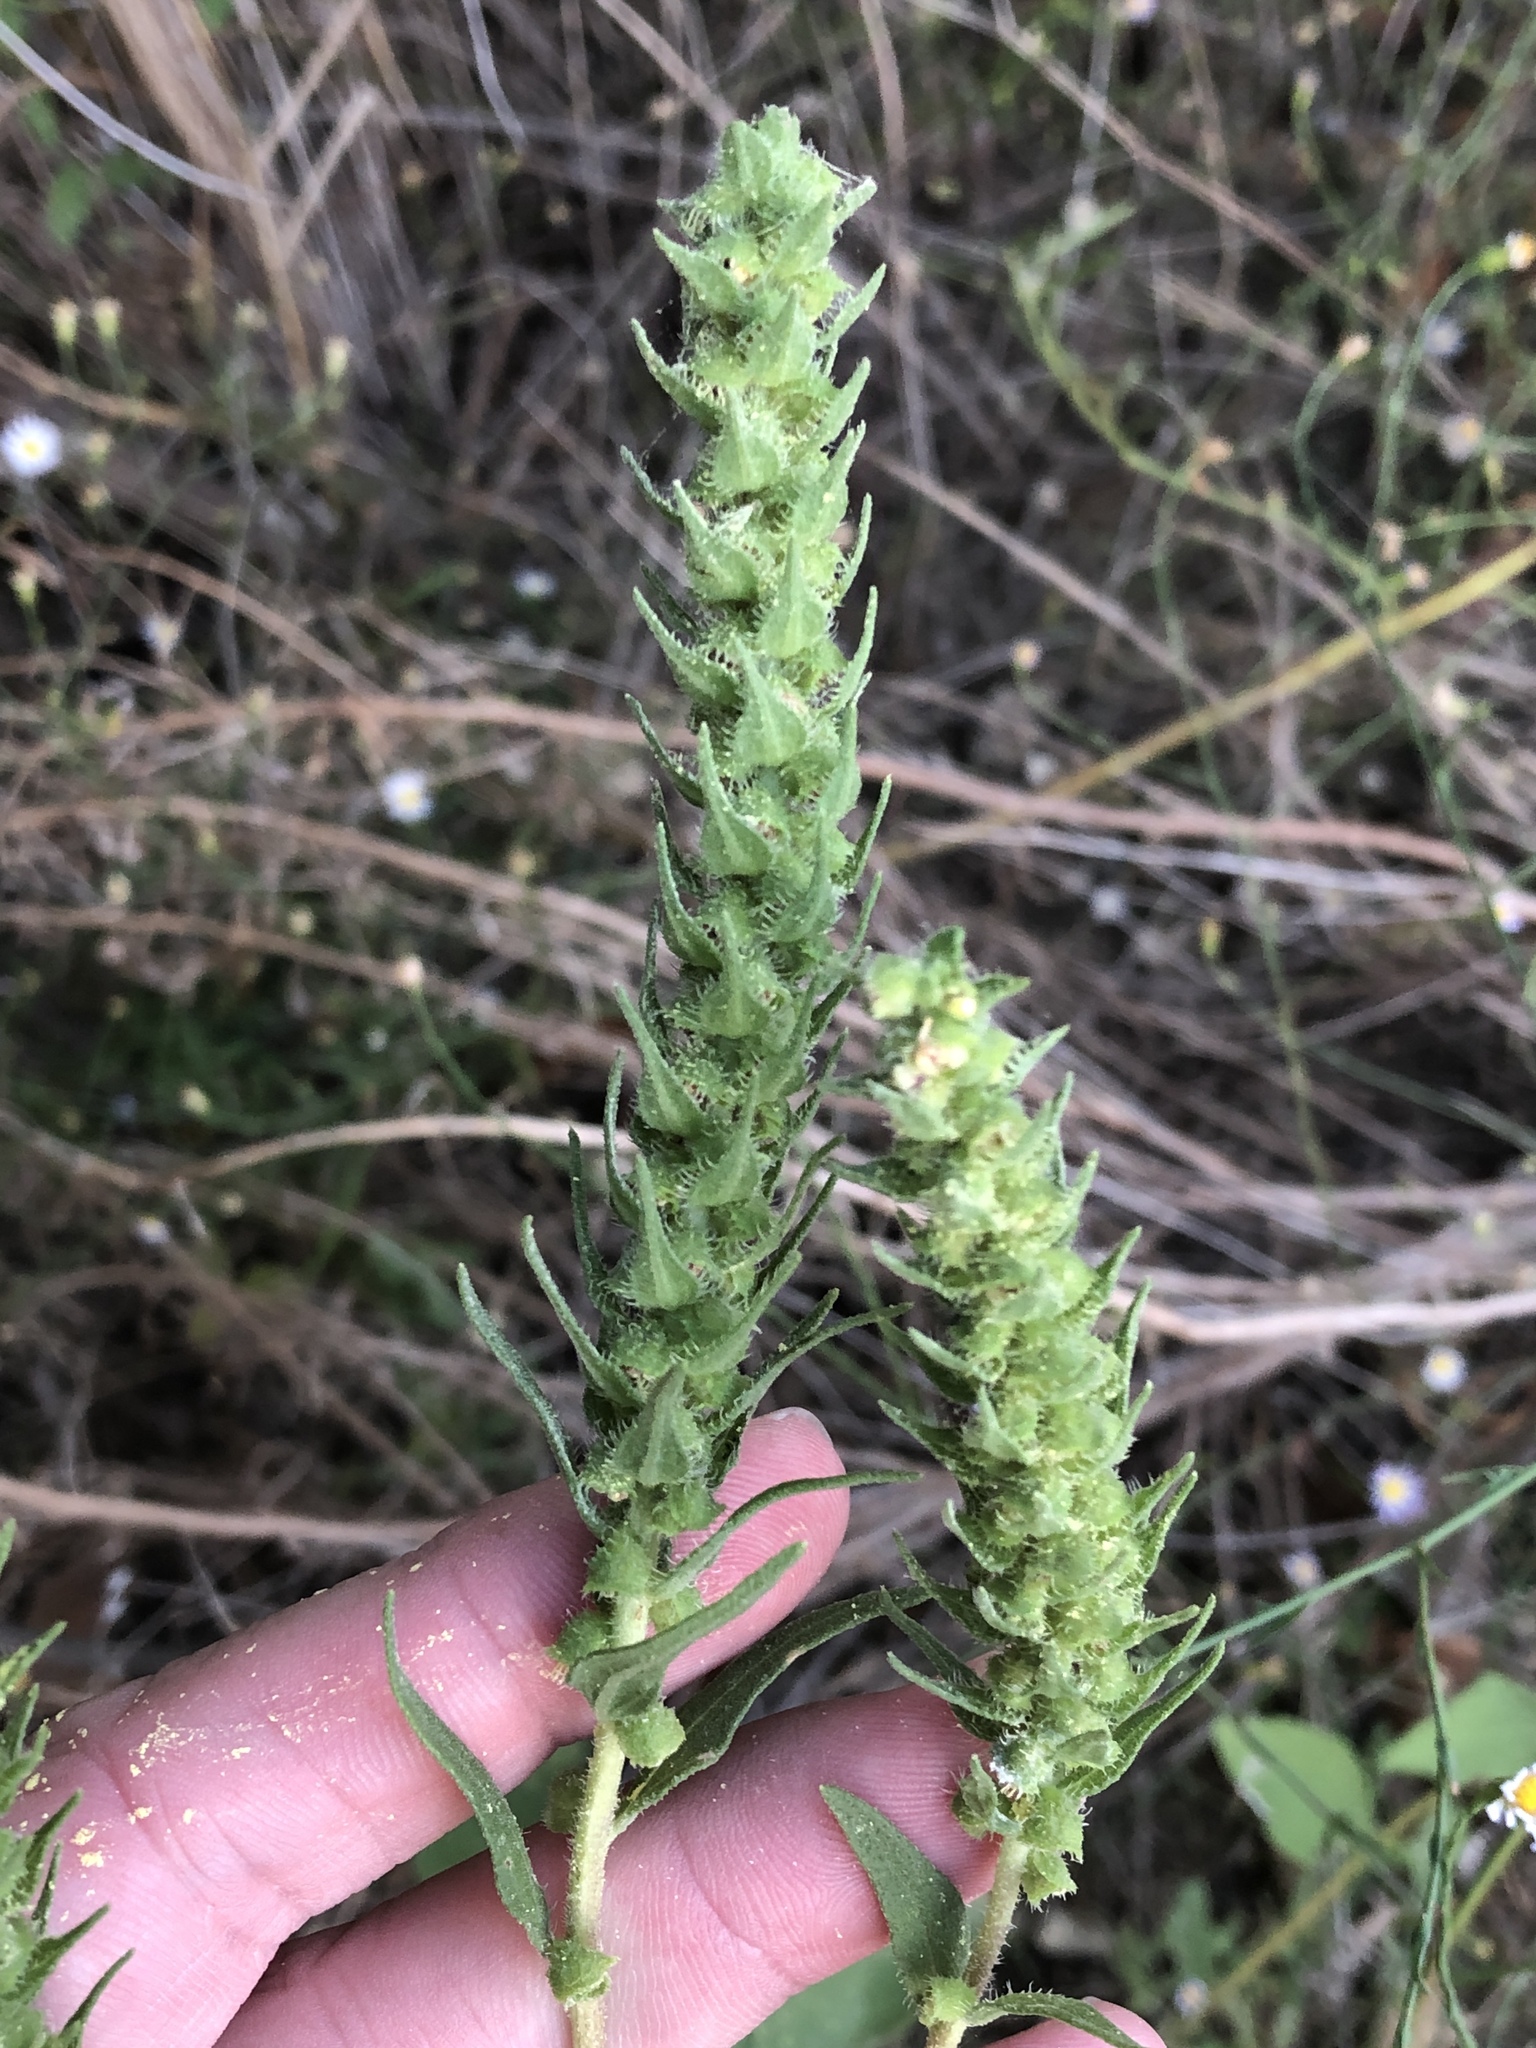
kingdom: Plantae
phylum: Tracheophyta
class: Magnoliopsida
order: Asterales
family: Asteraceae
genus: Iva
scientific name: Iva annua
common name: Marsh-elder
